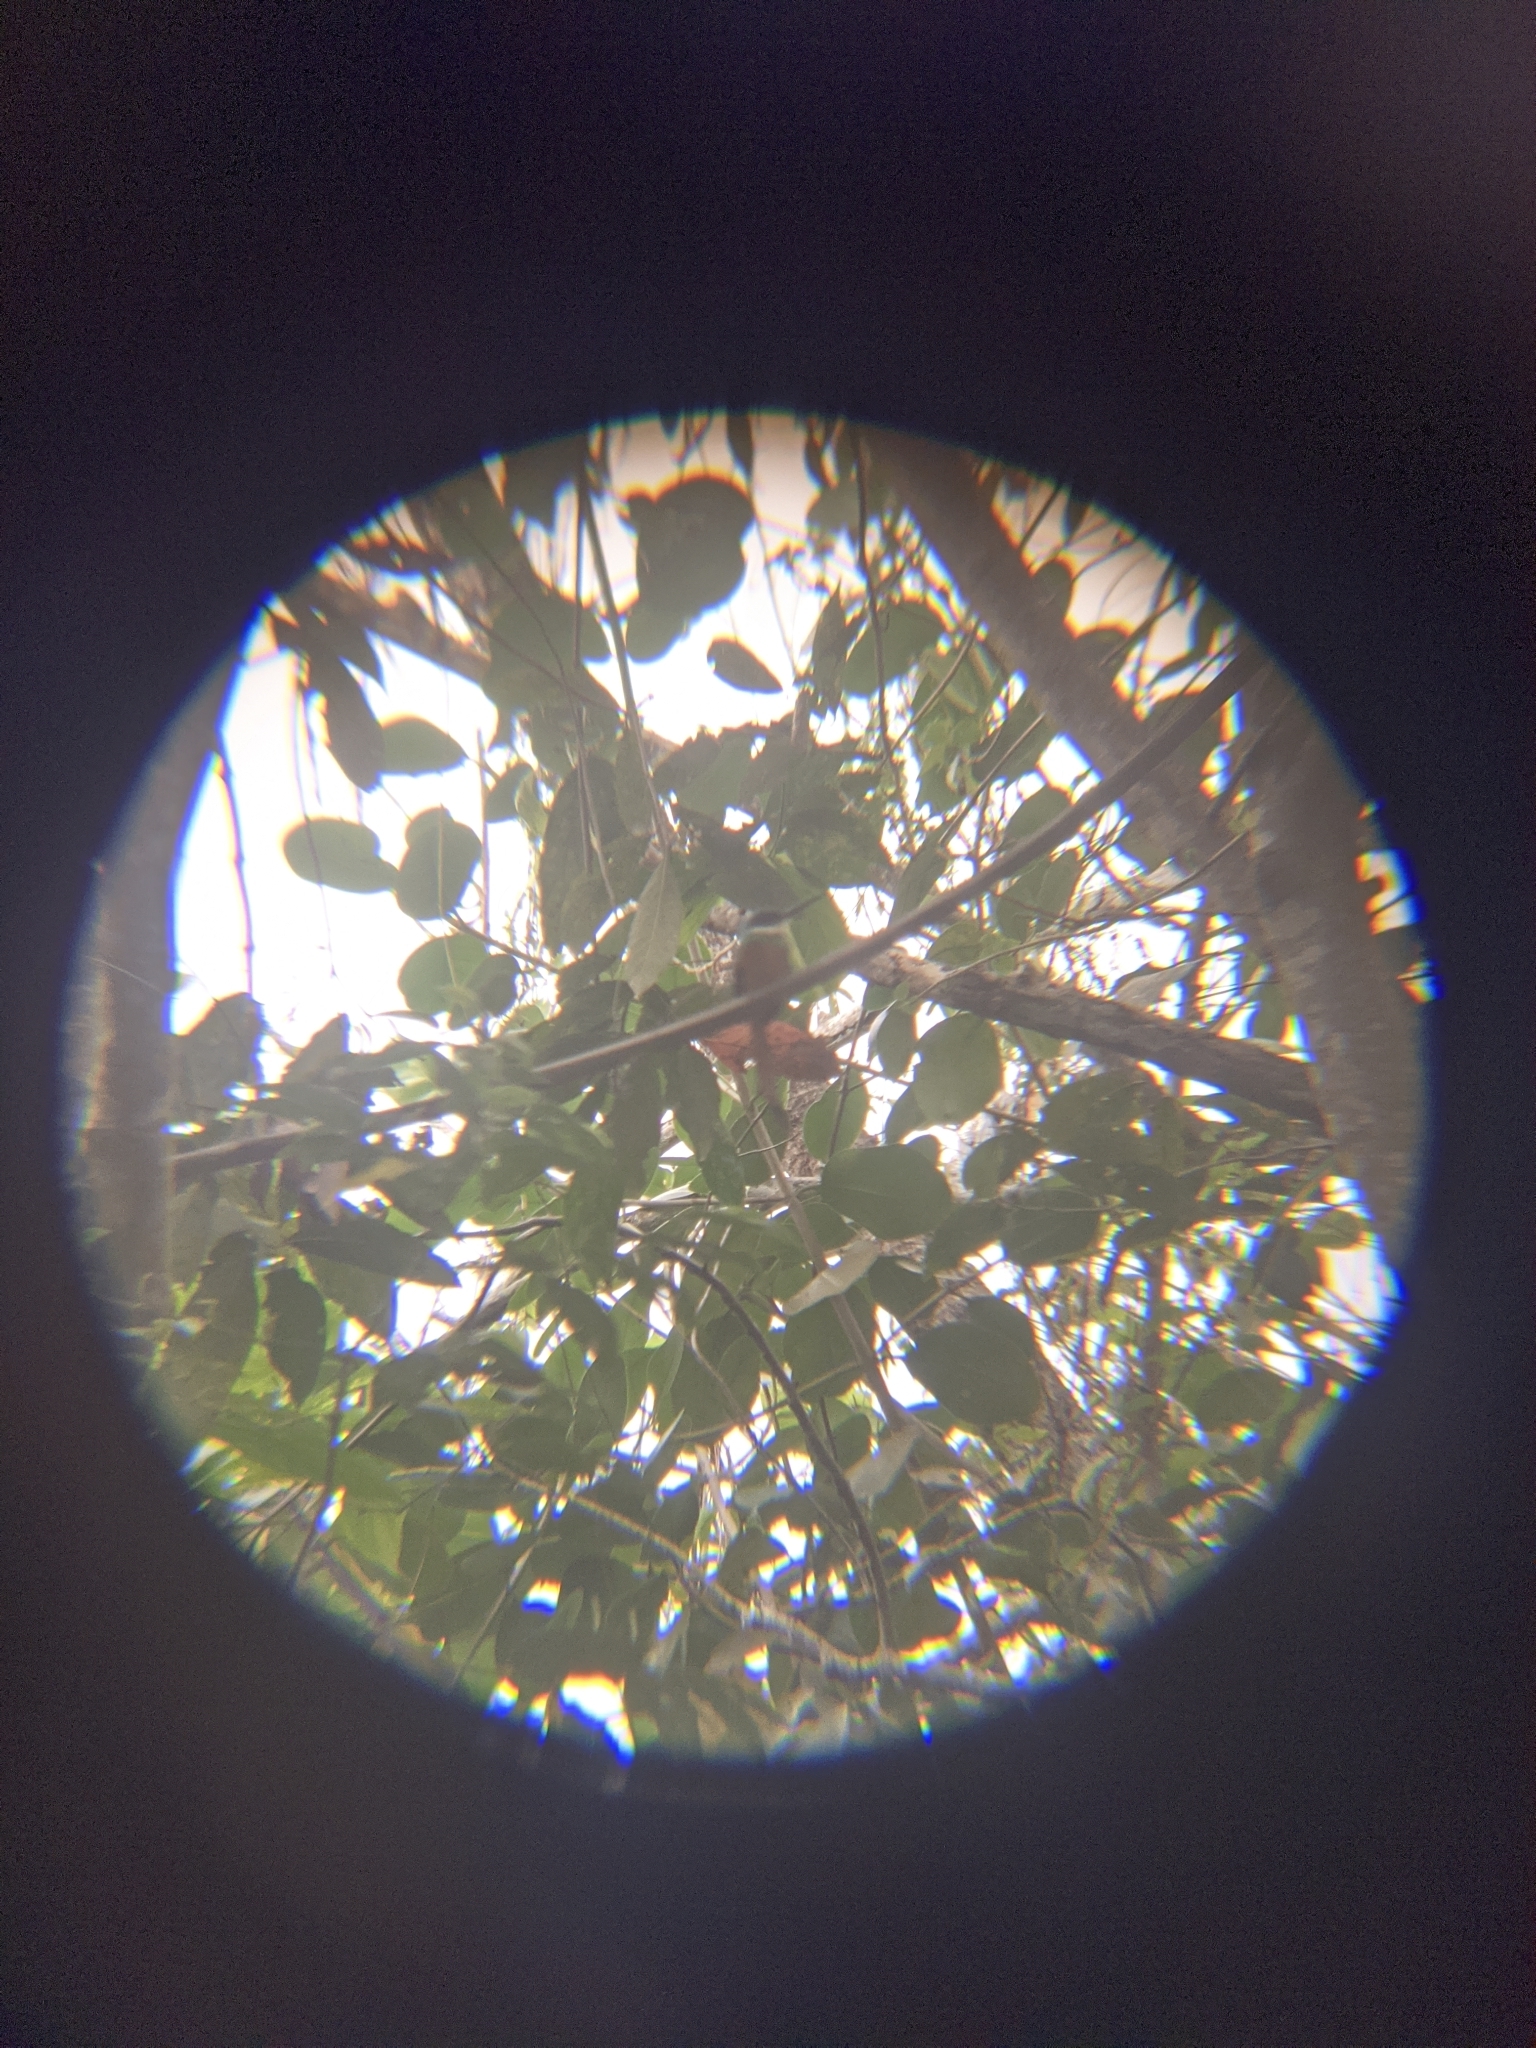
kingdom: Animalia
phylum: Chordata
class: Aves
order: Piciformes
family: Galbulidae
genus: Galbula
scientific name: Galbula ruficauda
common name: Rufous-tailed jacamar
